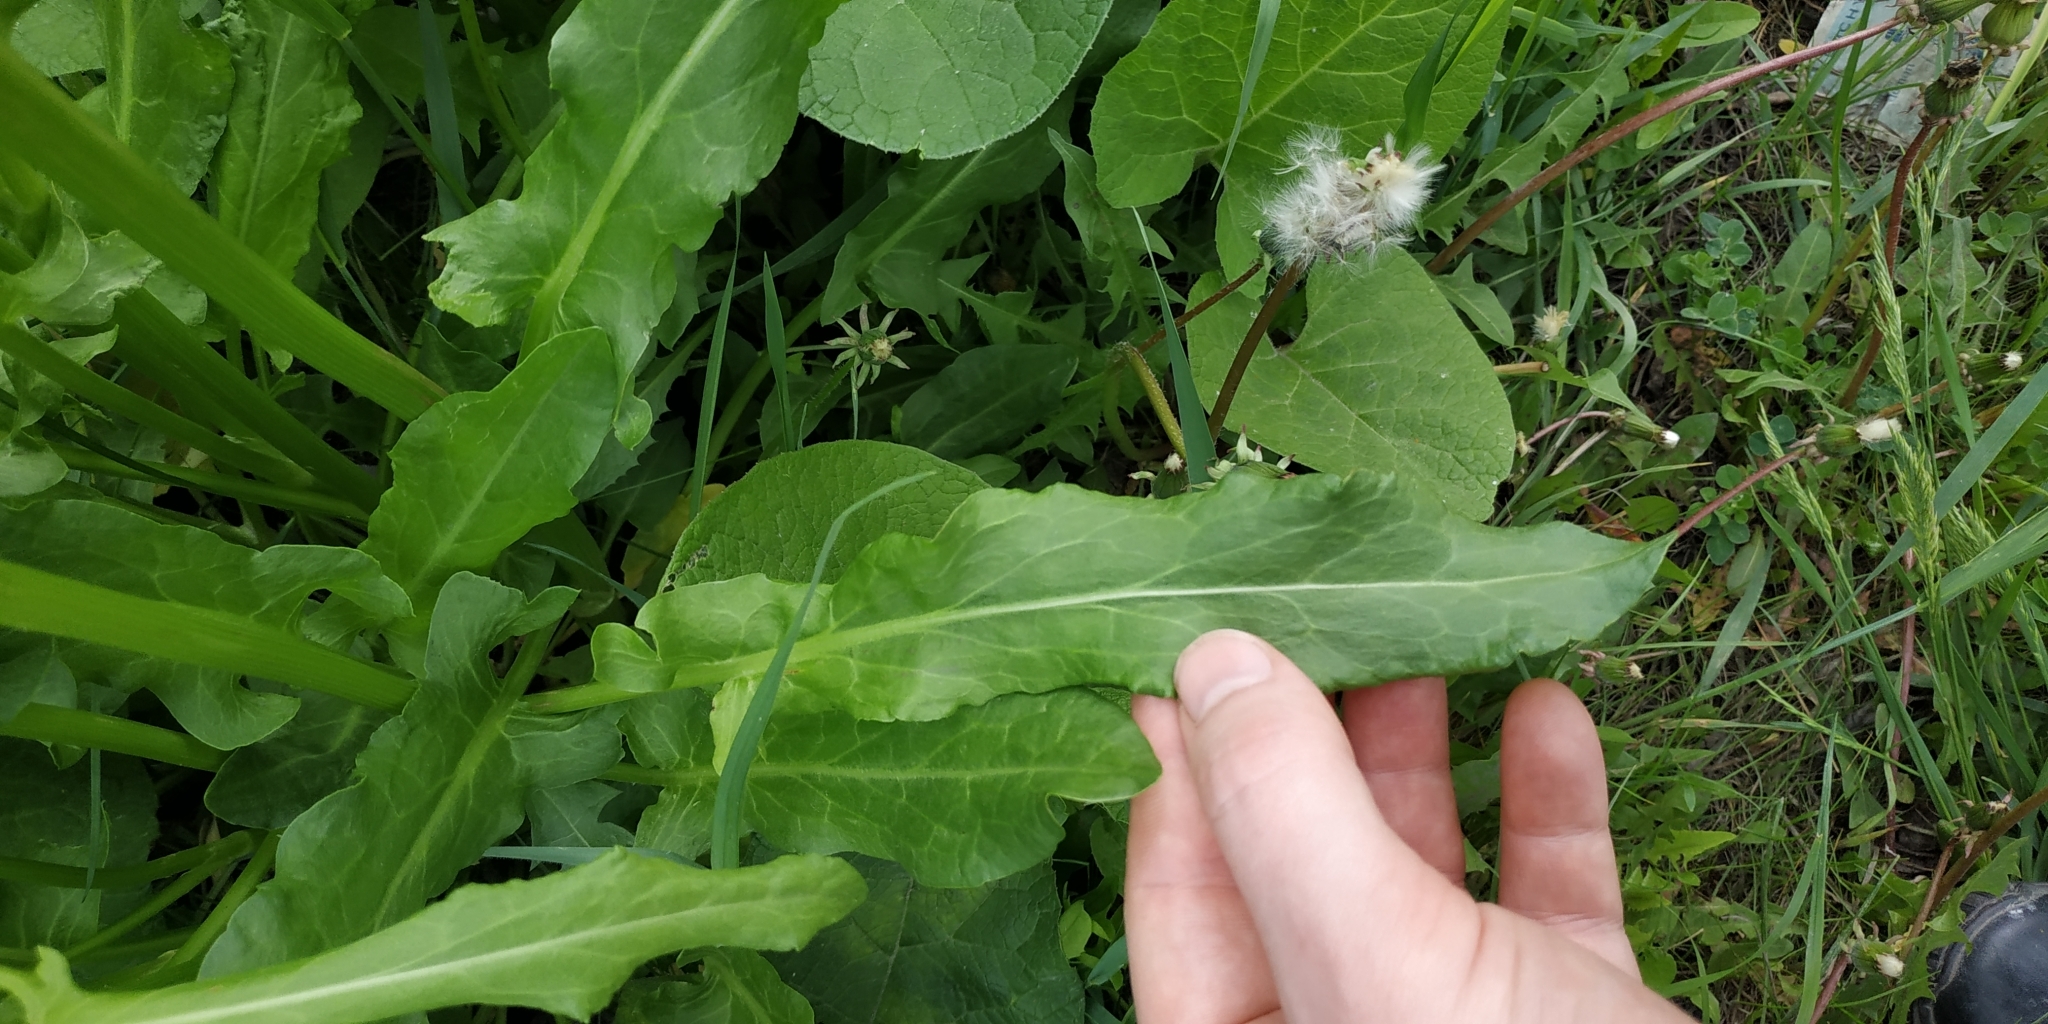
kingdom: Plantae
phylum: Tracheophyta
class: Magnoliopsida
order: Caryophyllales
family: Polygonaceae
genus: Rumex
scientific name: Rumex thyrsiflorus
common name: Garden sorrel
